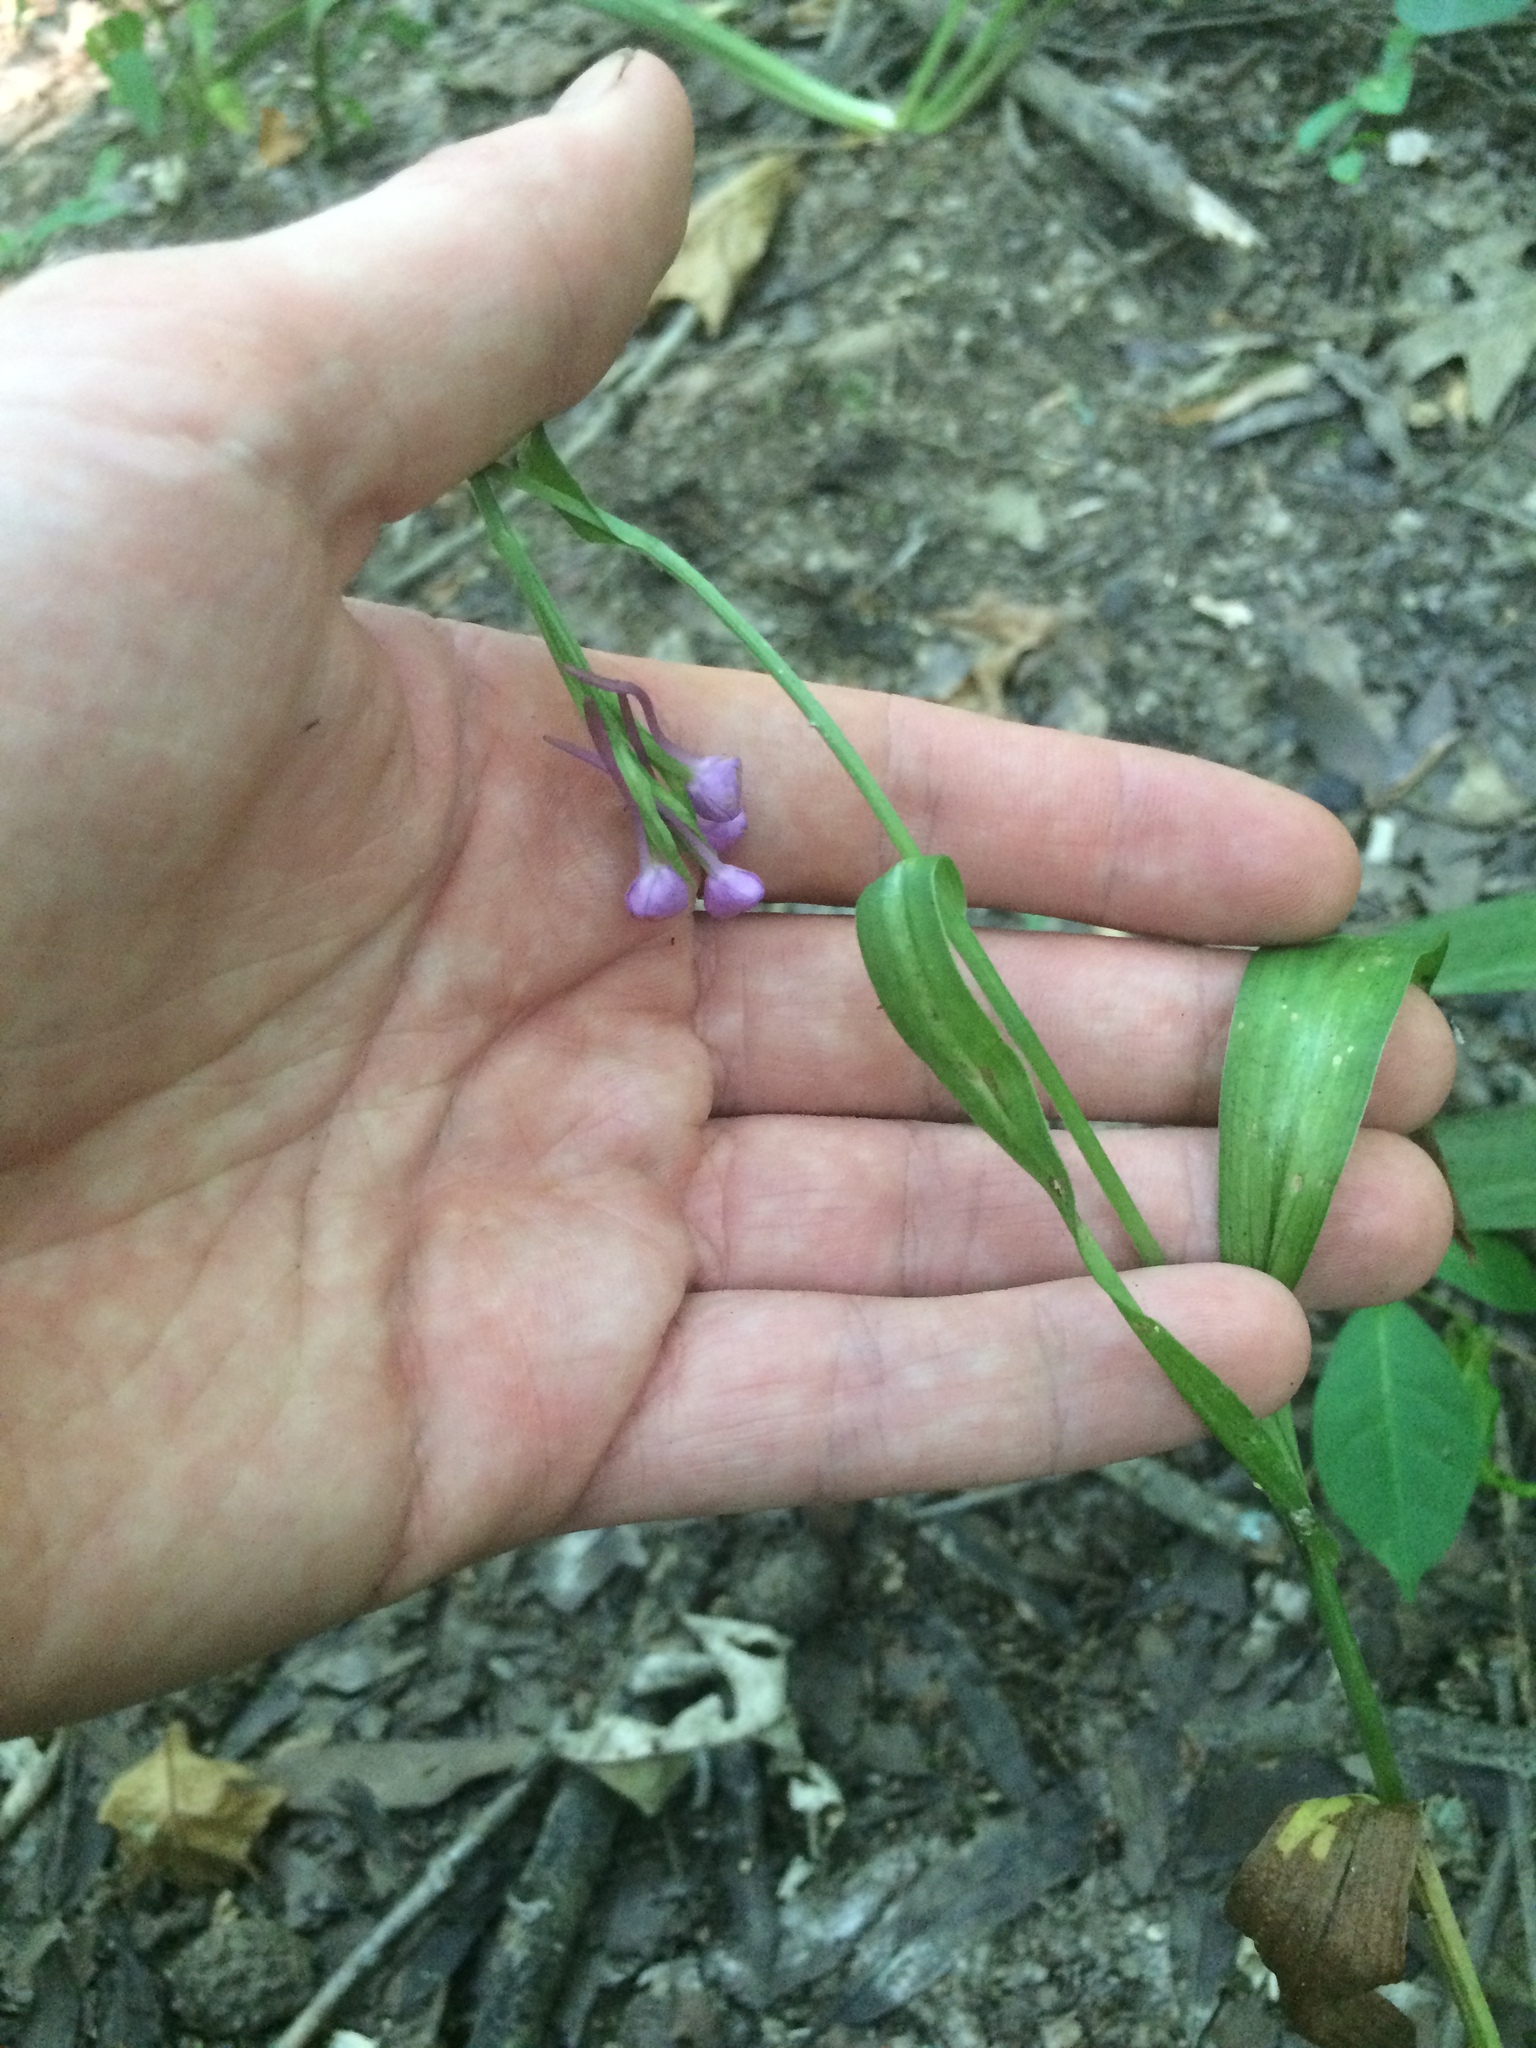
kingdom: Plantae
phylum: Tracheophyta
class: Liliopsida
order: Asparagales
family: Orchidaceae
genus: Platanthera
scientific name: Platanthera peramoena
